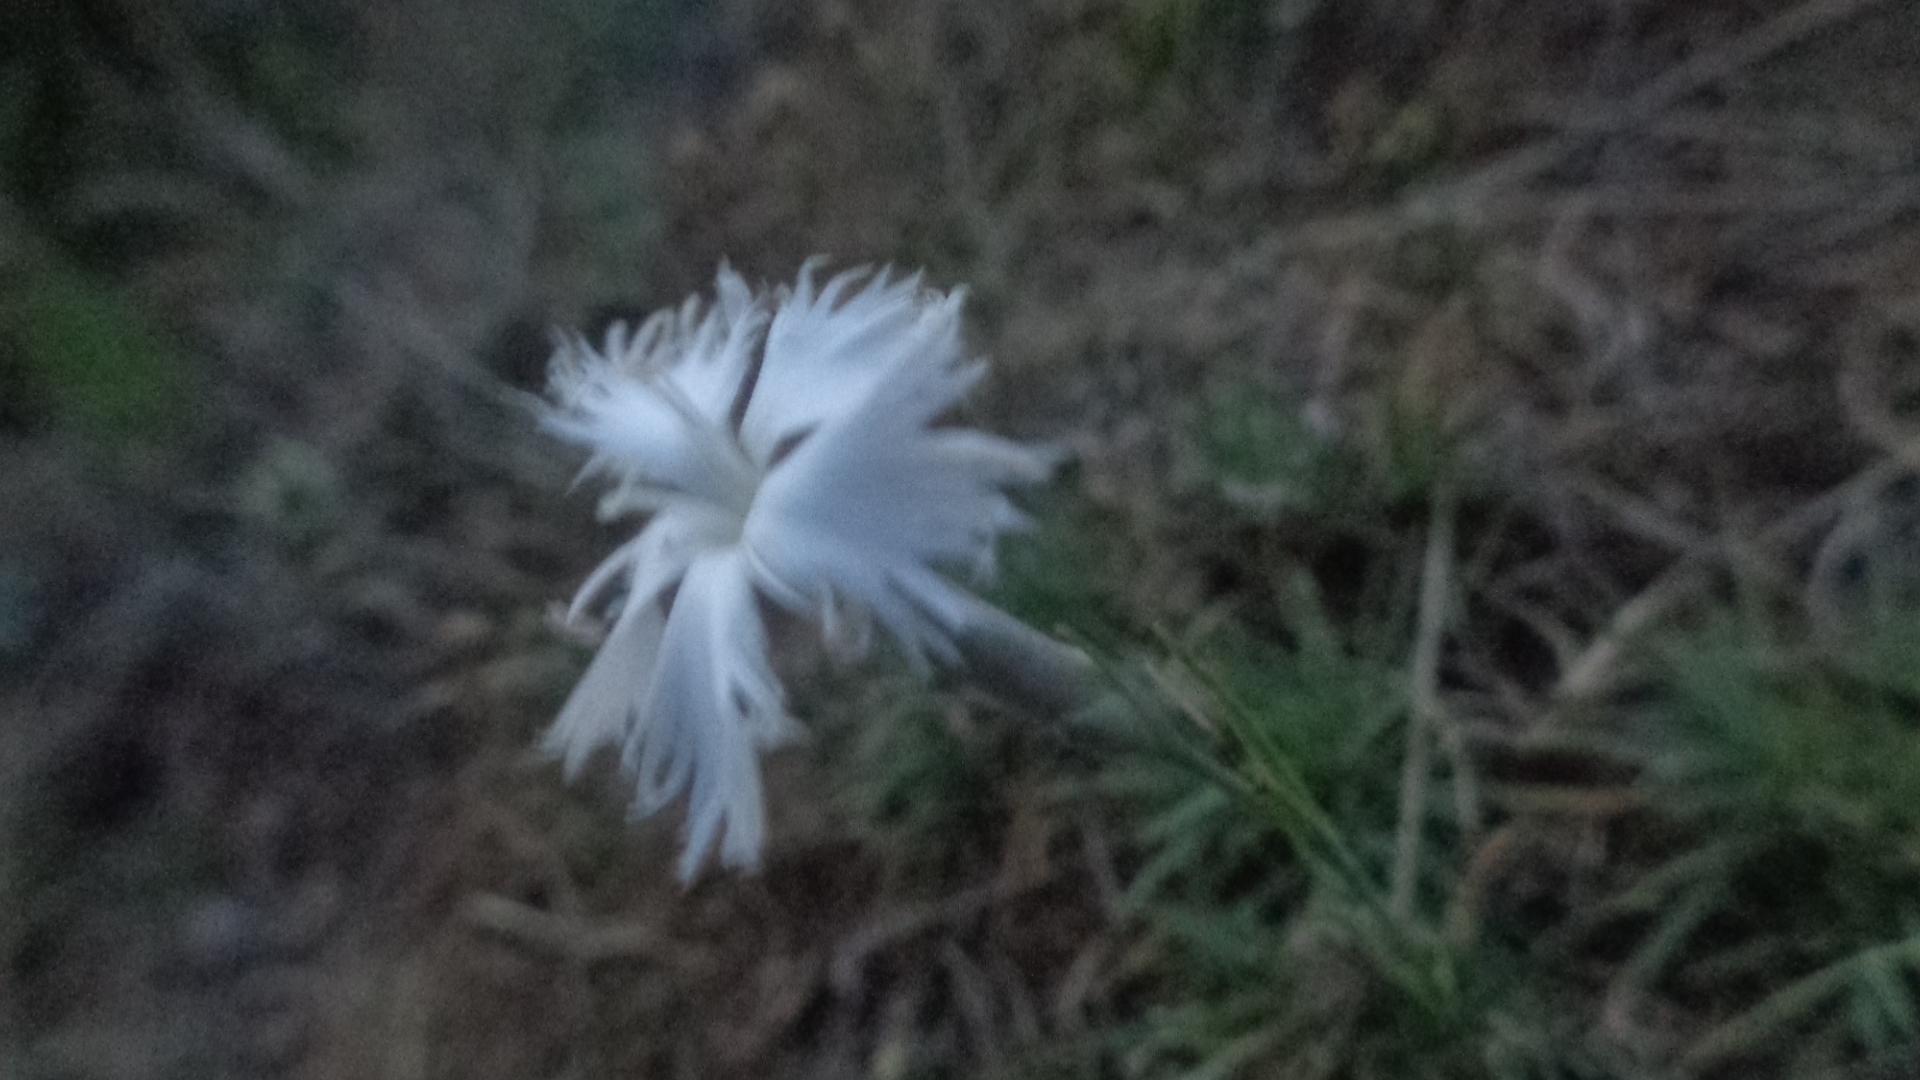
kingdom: Plantae
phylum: Tracheophyta
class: Magnoliopsida
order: Caryophyllales
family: Caryophyllaceae
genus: Dianthus
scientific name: Dianthus acicularis
